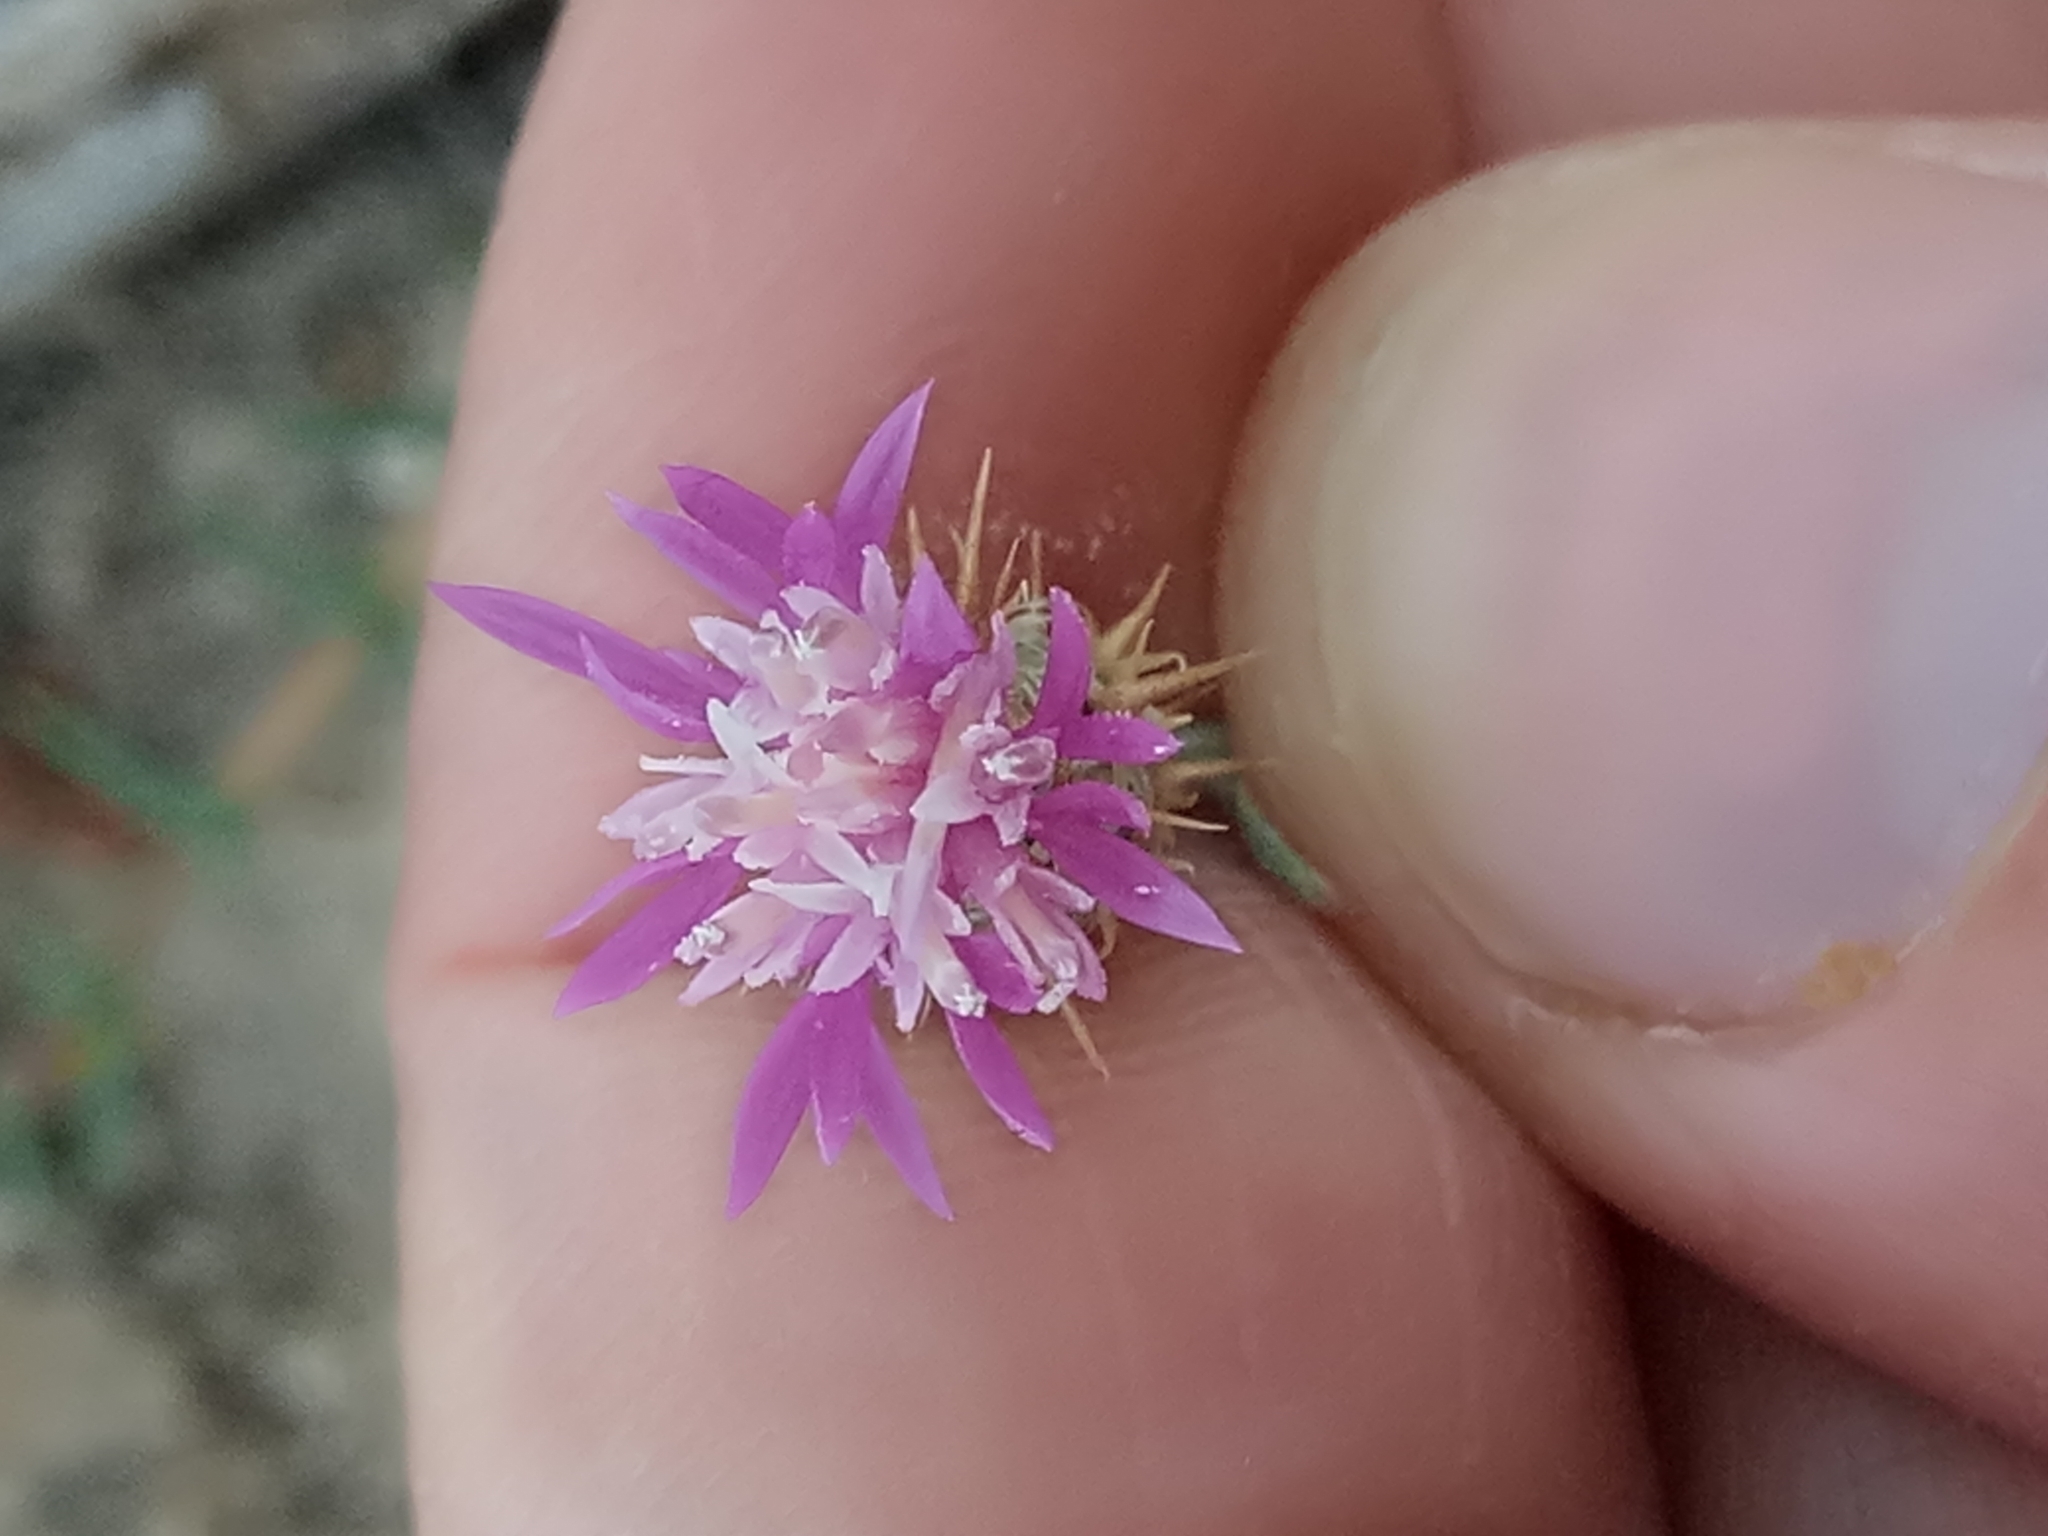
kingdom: Plantae
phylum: Tracheophyta
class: Magnoliopsida
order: Asterales
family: Asteraceae
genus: Centaurea
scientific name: Centaurea parviflora
